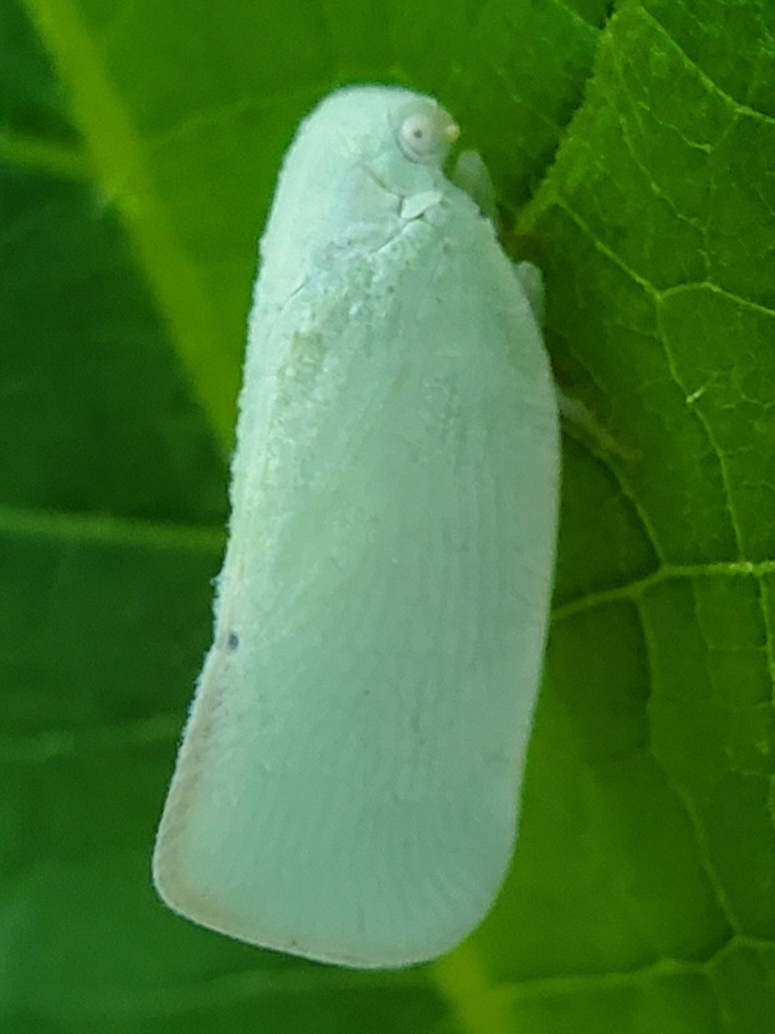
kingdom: Animalia
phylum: Arthropoda
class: Insecta
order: Hemiptera
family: Flatidae
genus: Flatormenis
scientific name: Flatormenis proxima
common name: Northern flatid planthopper
